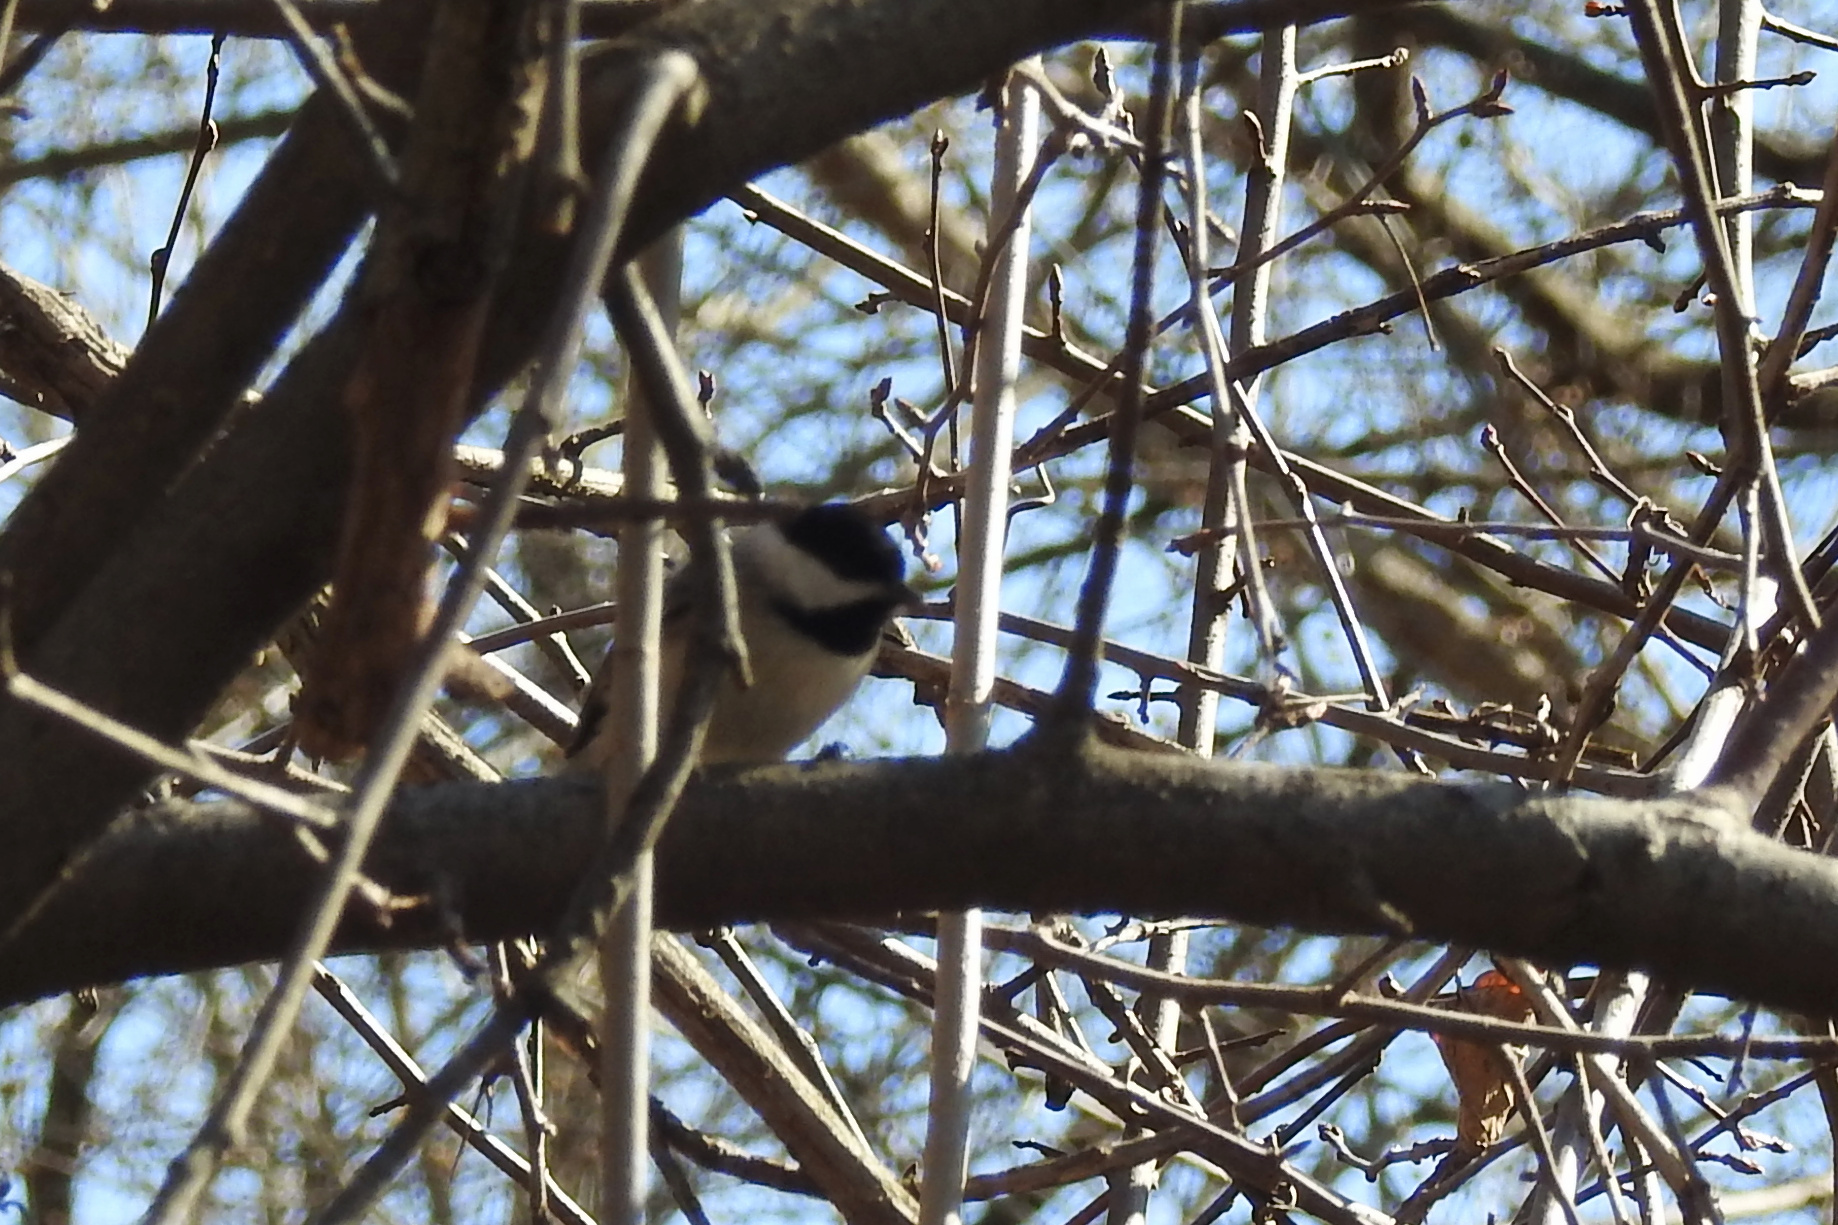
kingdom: Animalia
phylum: Chordata
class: Aves
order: Passeriformes
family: Paridae
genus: Poecile
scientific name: Poecile carolinensis
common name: Carolina chickadee
